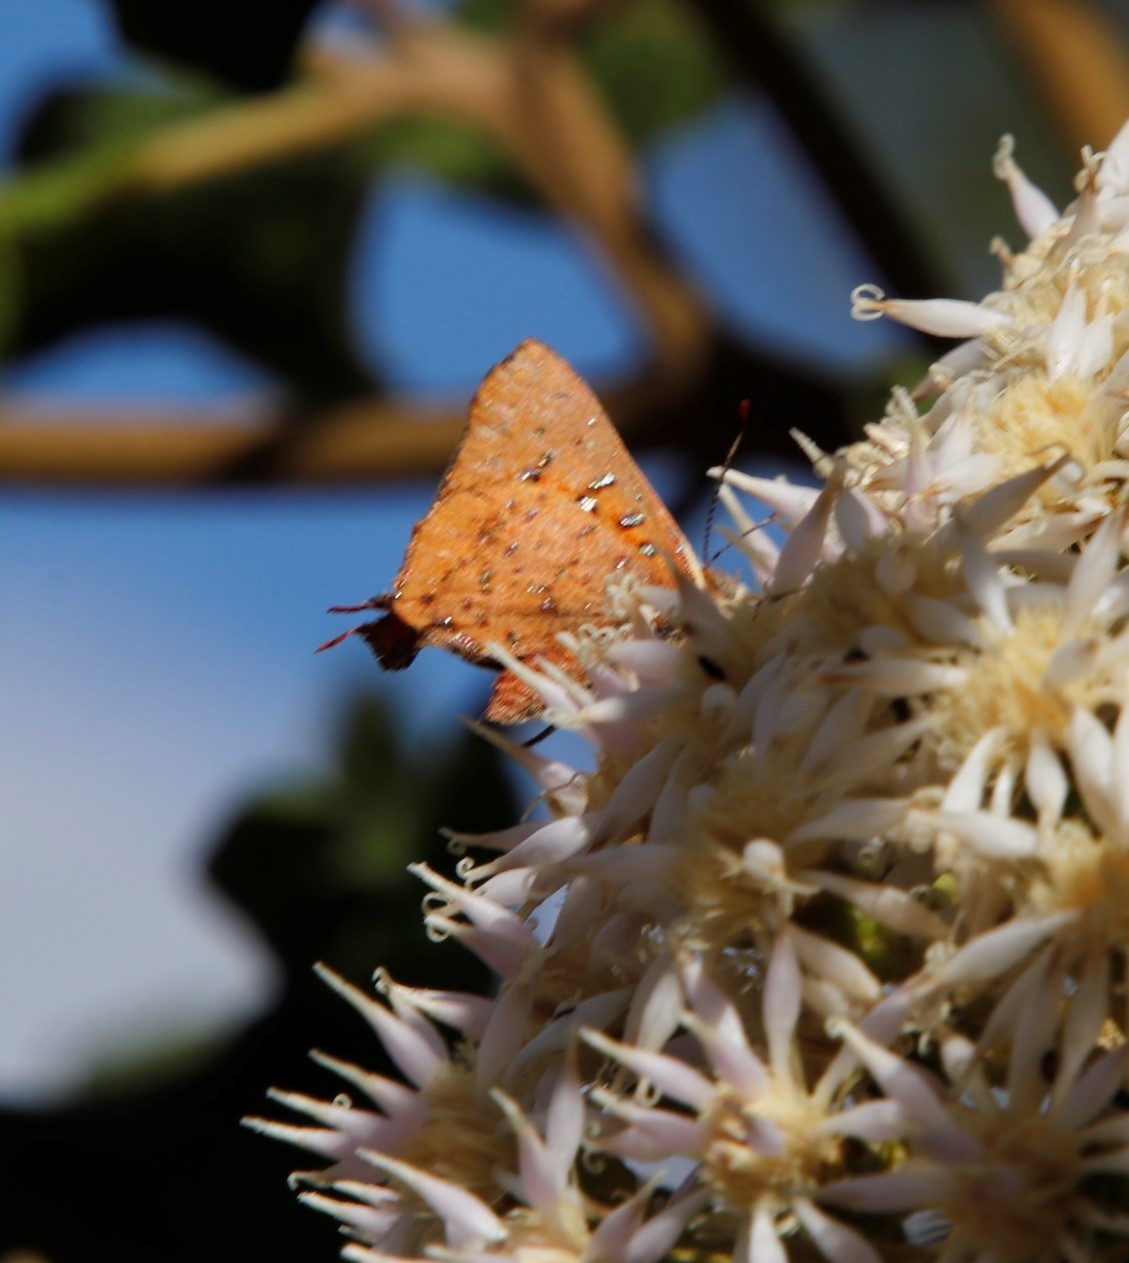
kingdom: Animalia
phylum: Arthropoda
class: Insecta
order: Lepidoptera
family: Lycaenidae
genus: Axiocerses
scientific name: Axiocerses perion
